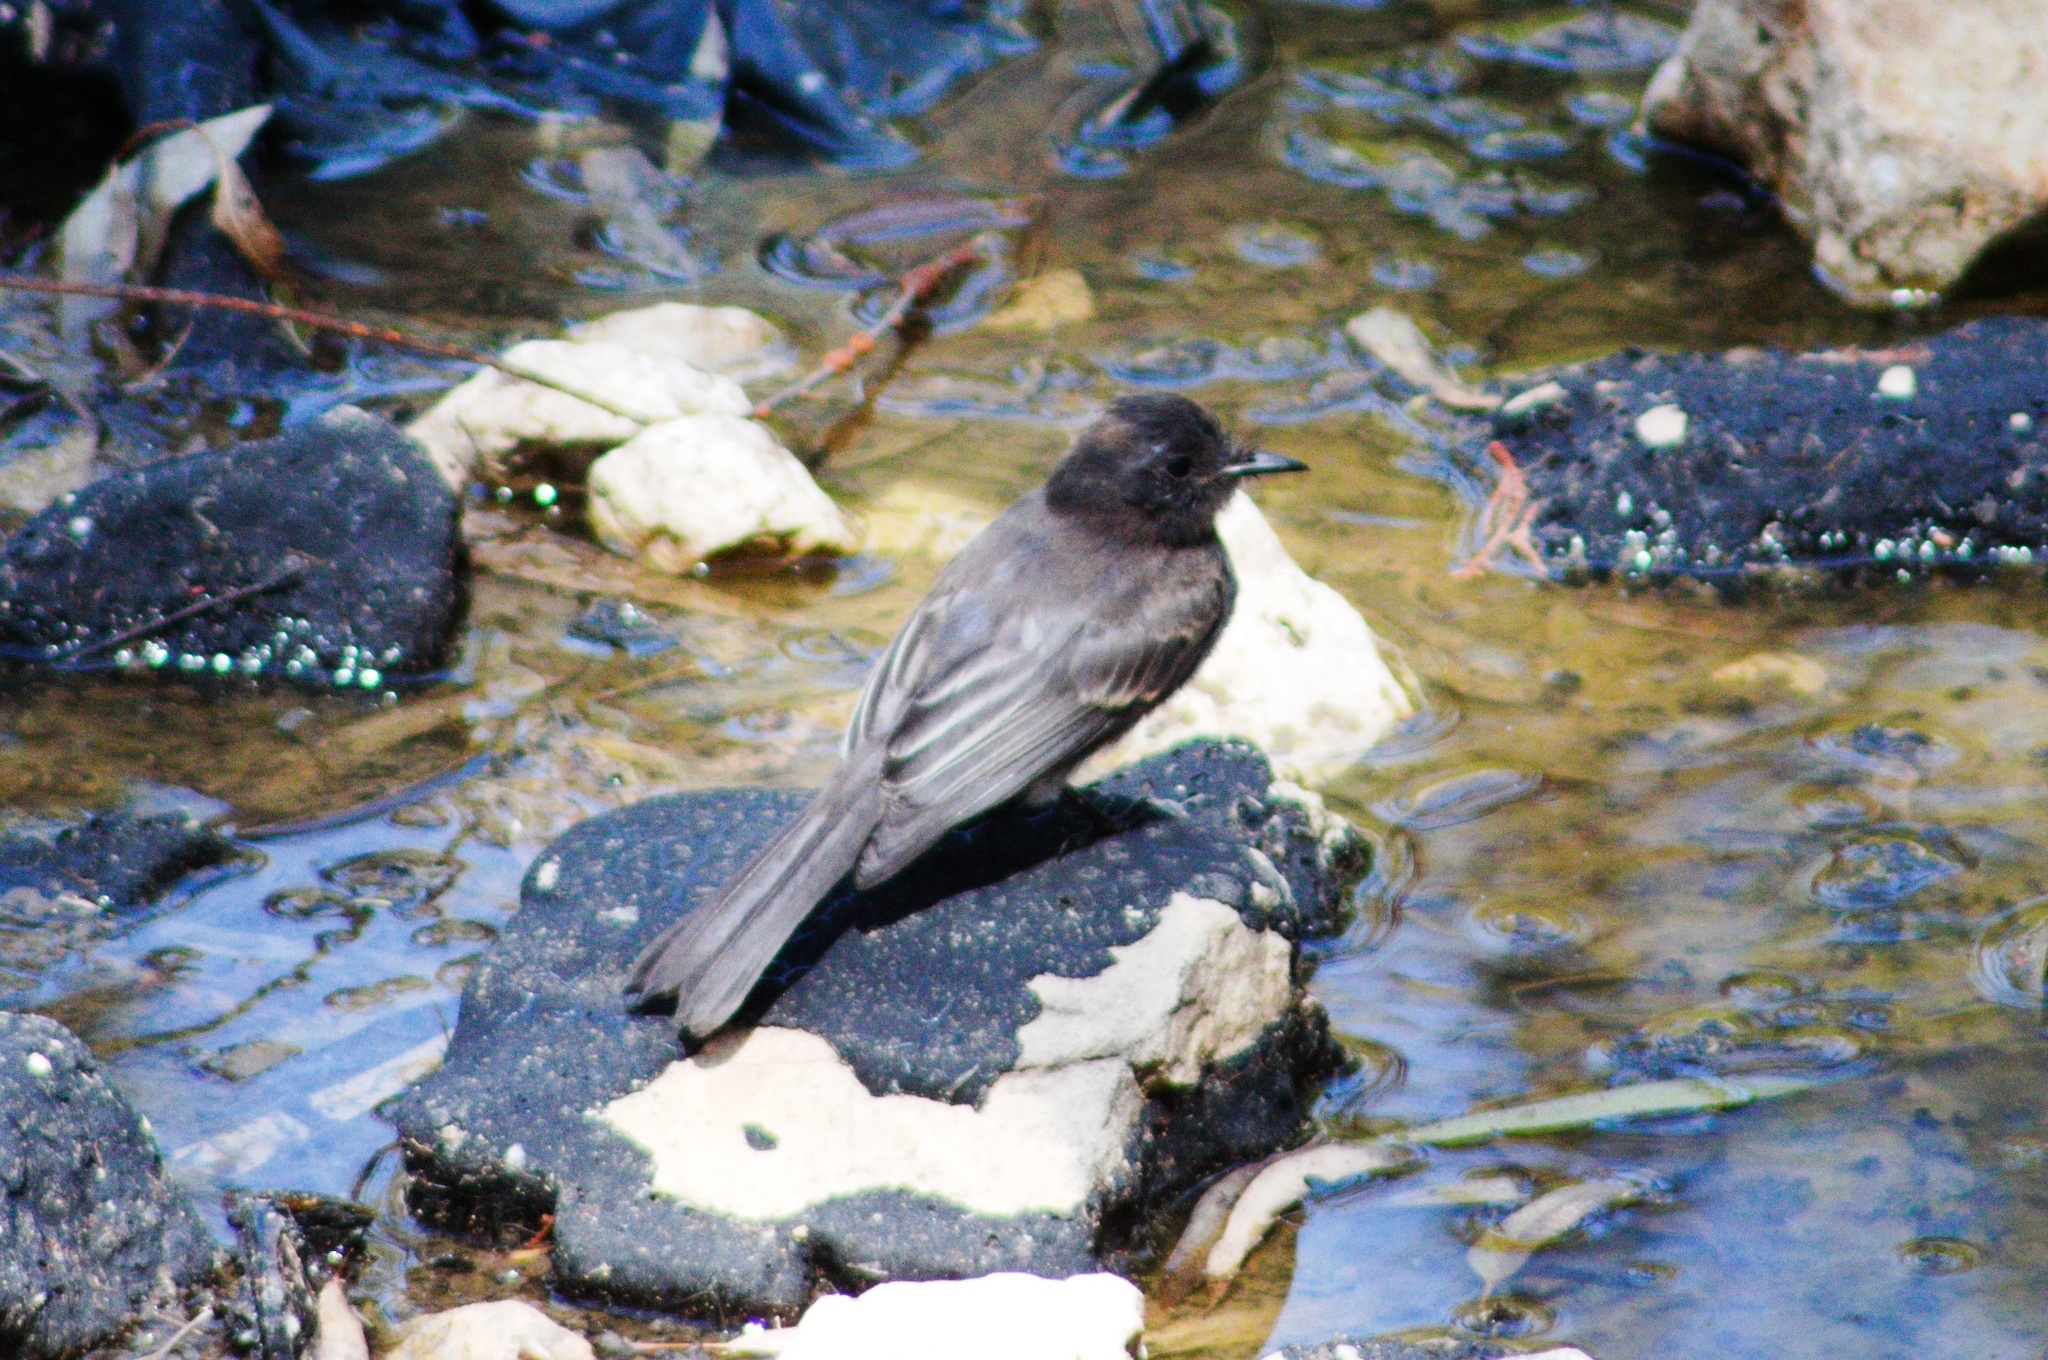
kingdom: Animalia
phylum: Chordata
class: Aves
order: Passeriformes
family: Tyrannidae
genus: Sayornis
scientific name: Sayornis nigricans
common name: Black phoebe
